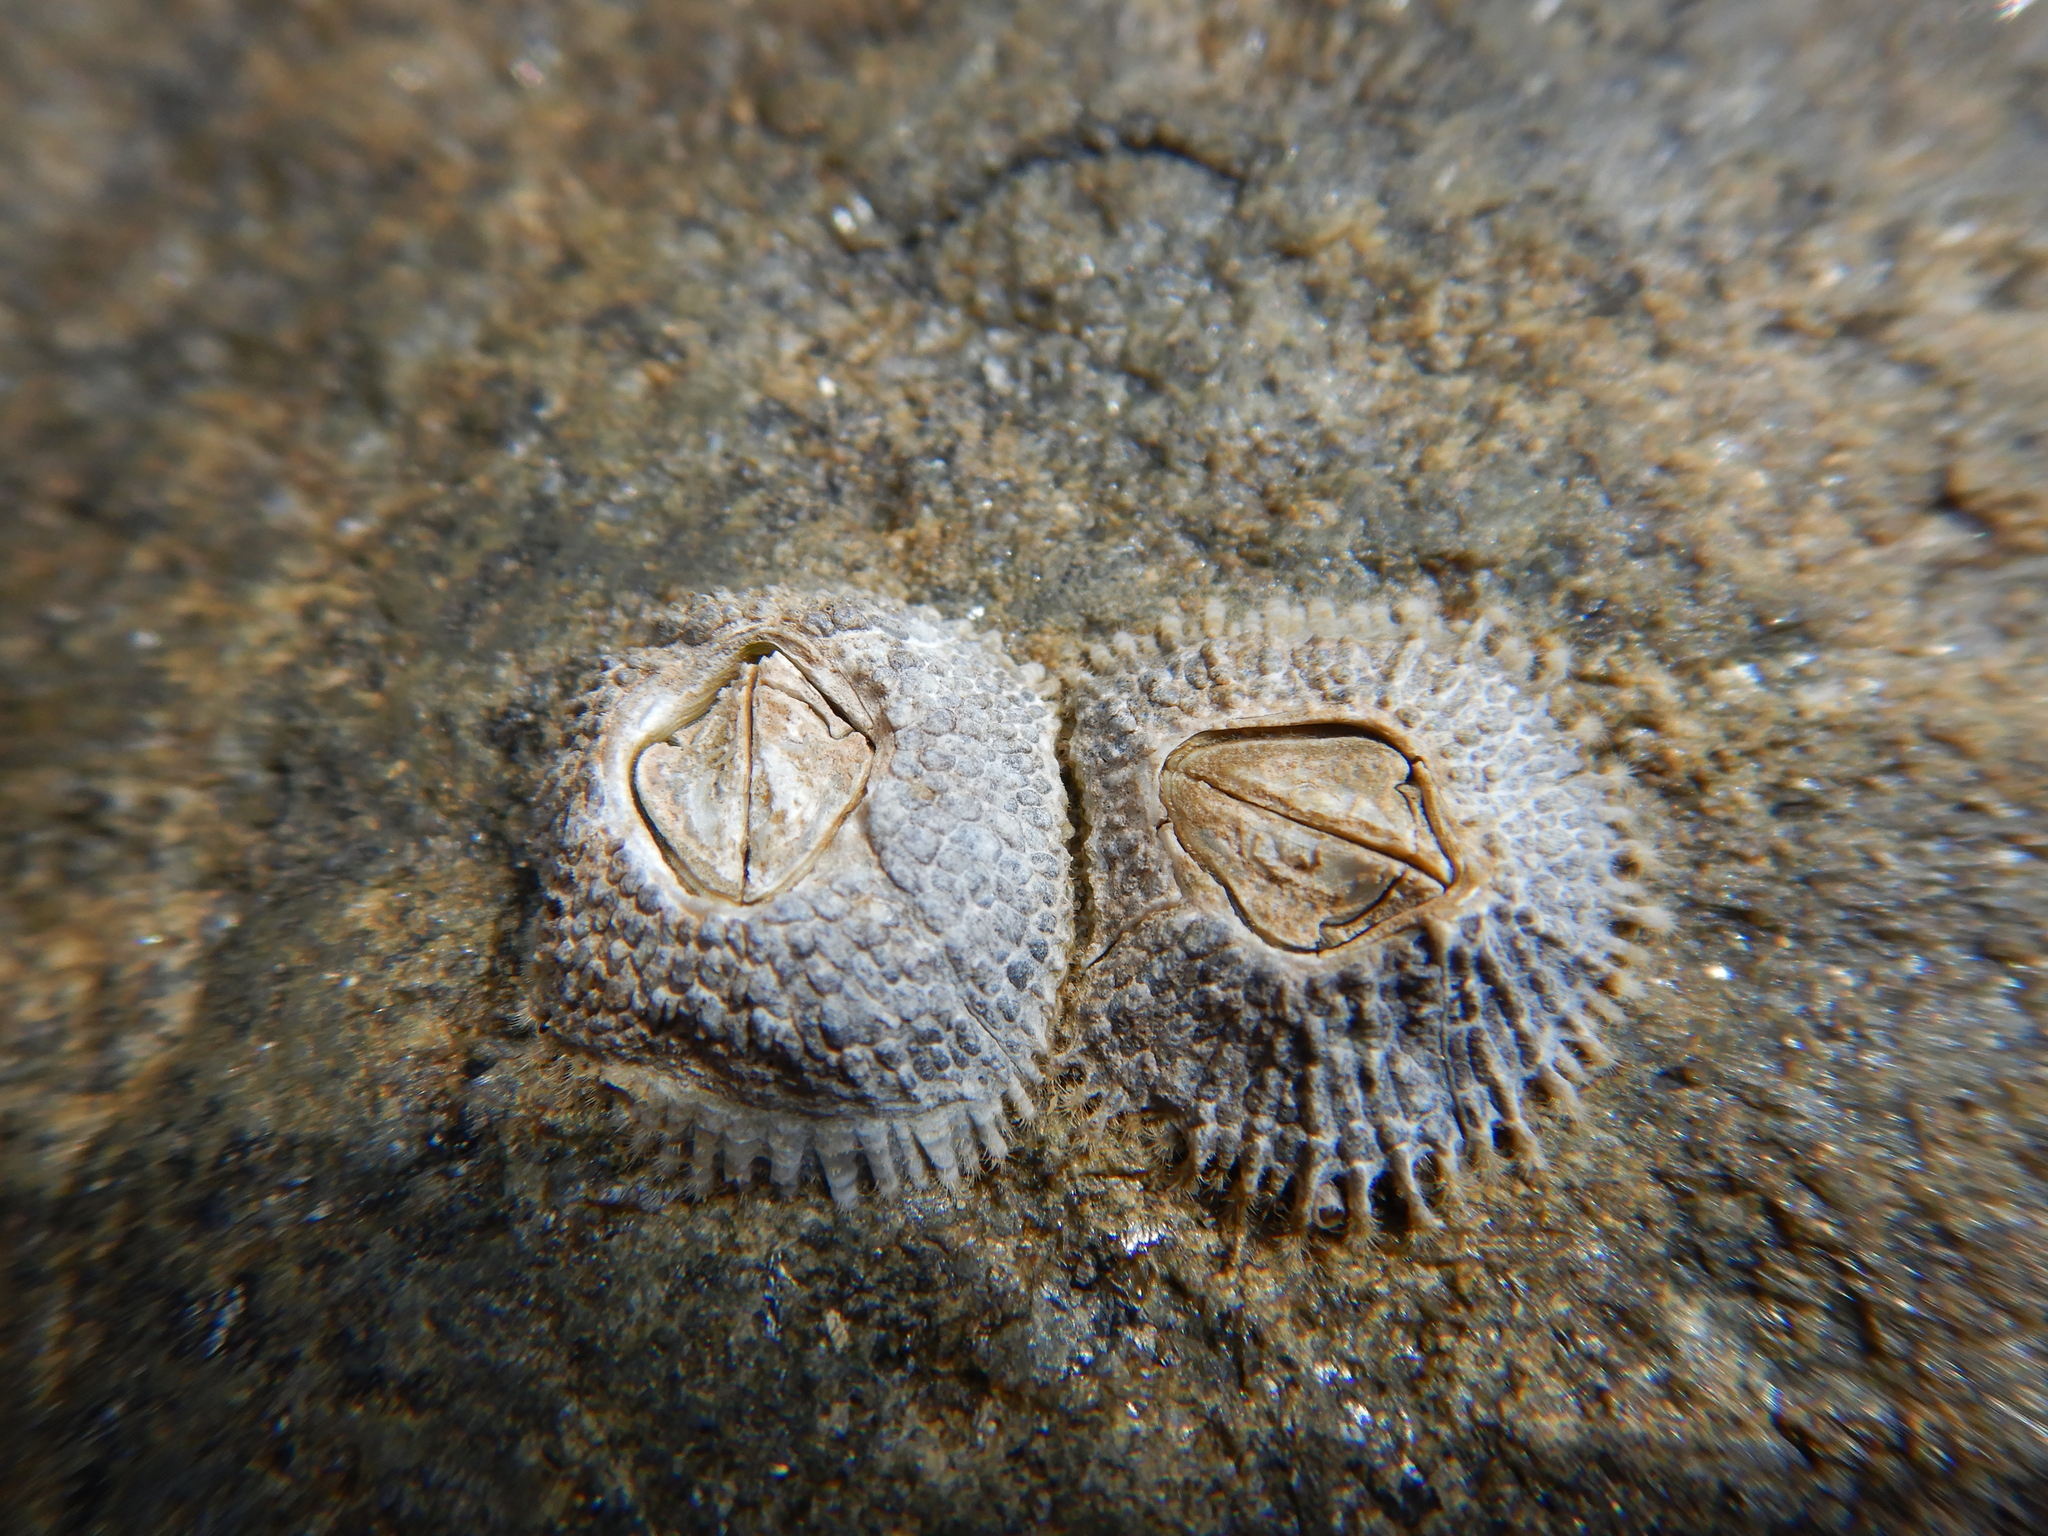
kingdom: Animalia
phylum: Arthropoda
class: Maxillopoda
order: Sessilia
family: Tetraclitidae
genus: Tetraclitella
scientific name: Tetraclitella purpurascens
